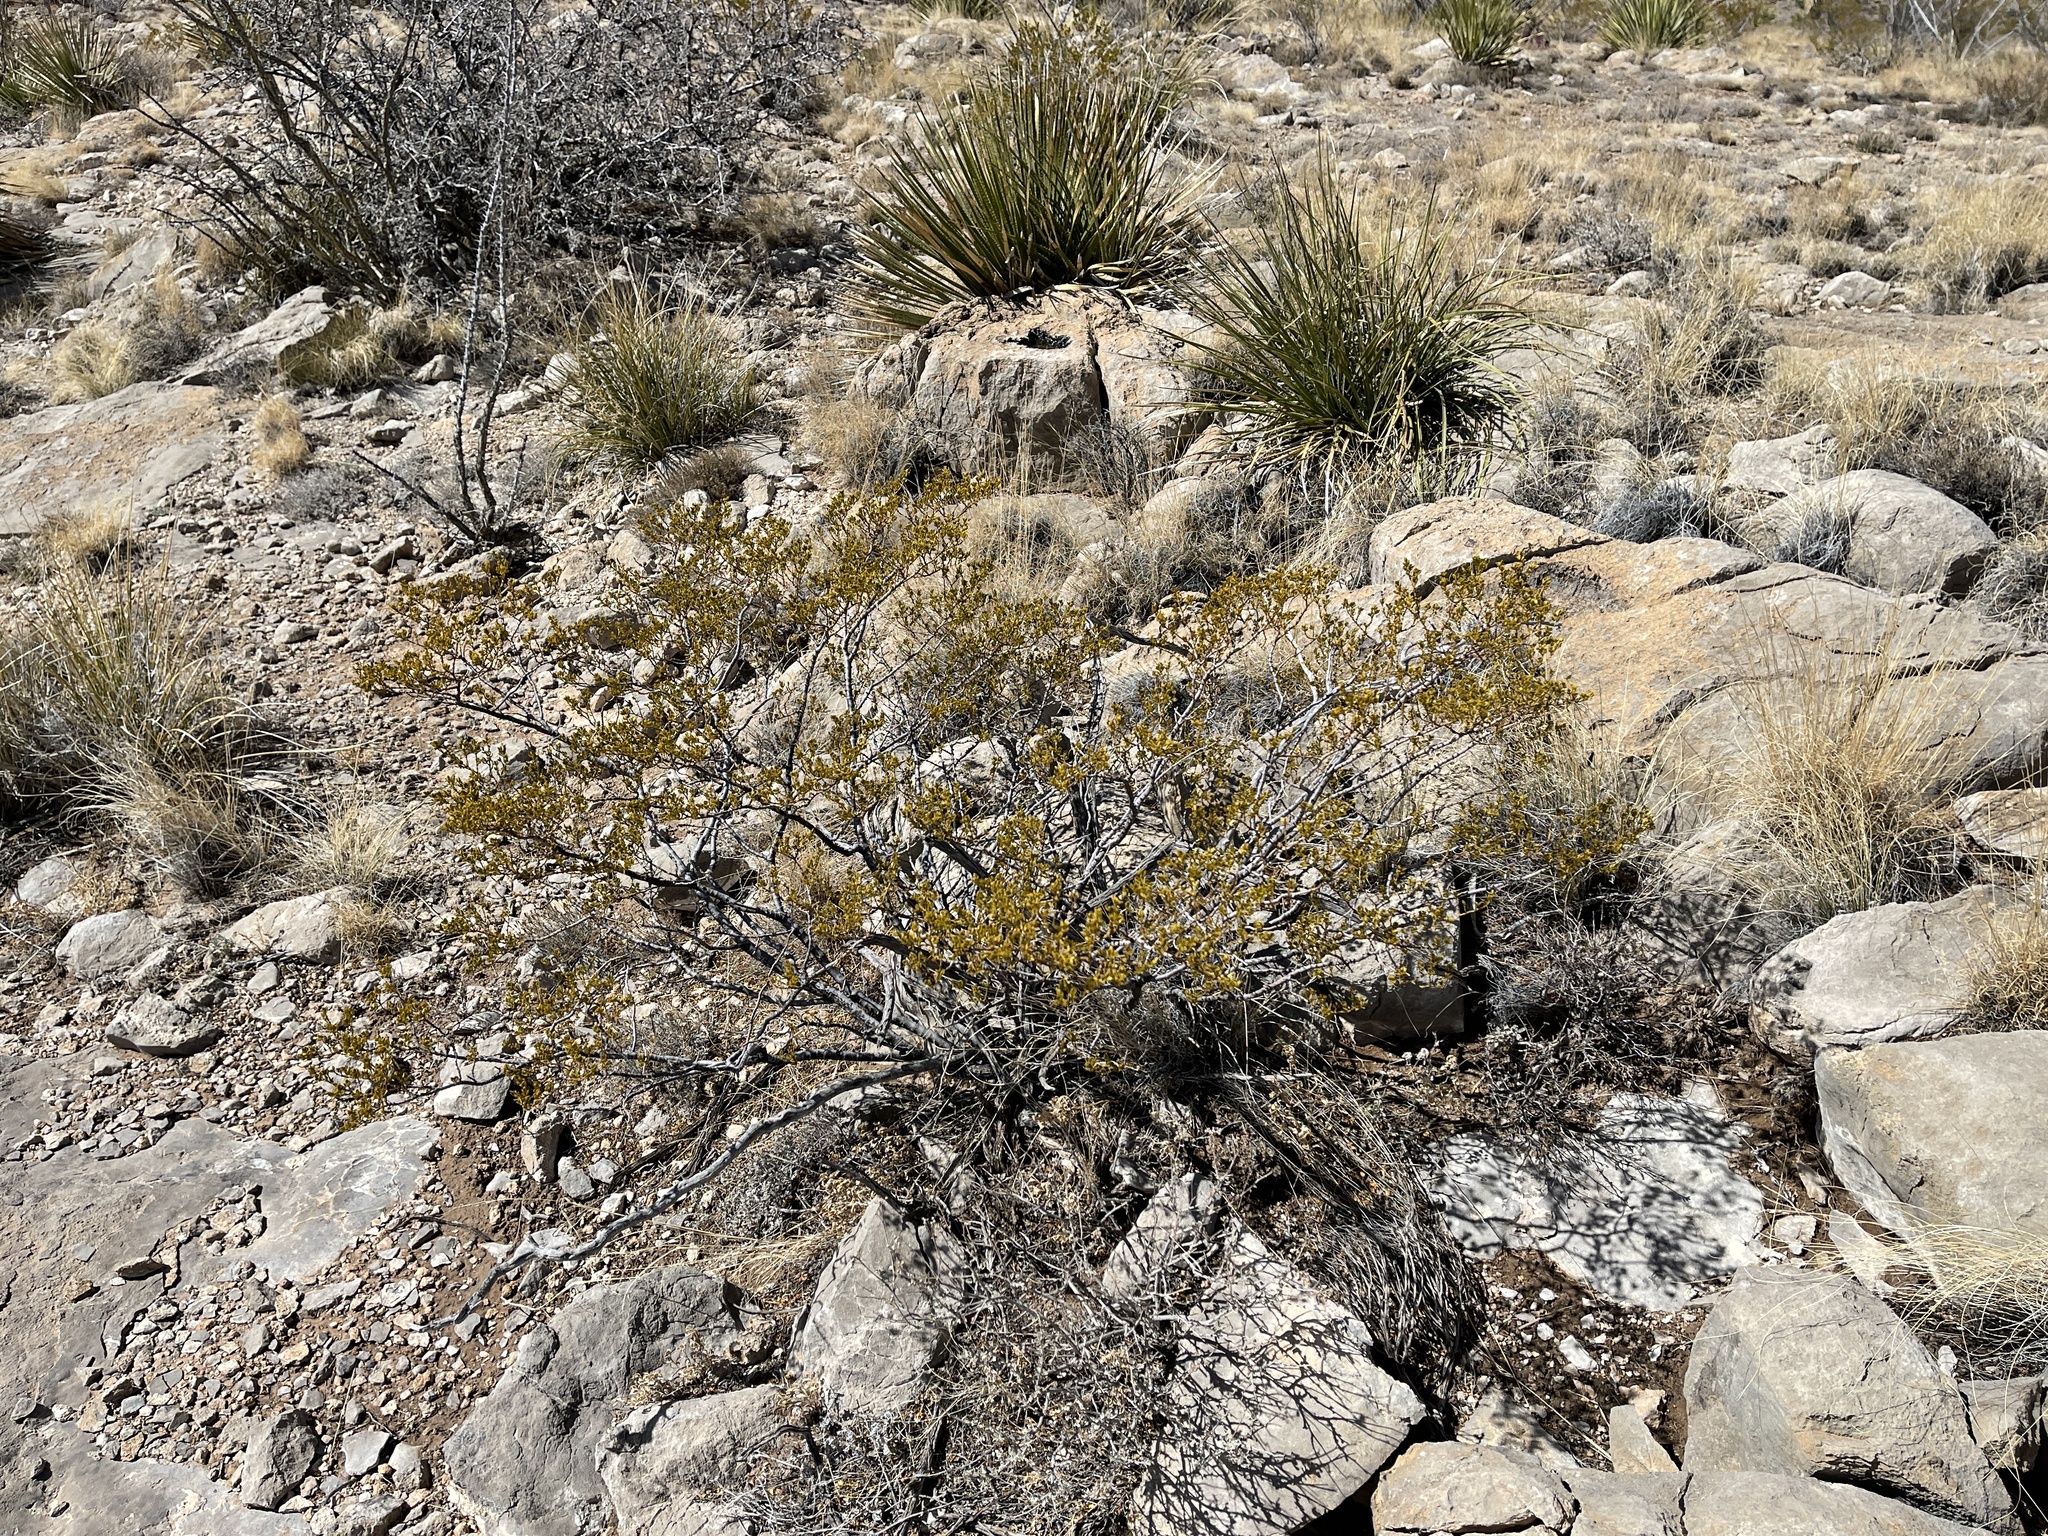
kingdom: Plantae
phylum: Tracheophyta
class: Magnoliopsida
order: Zygophyllales
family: Zygophyllaceae
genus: Larrea
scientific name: Larrea tridentata
